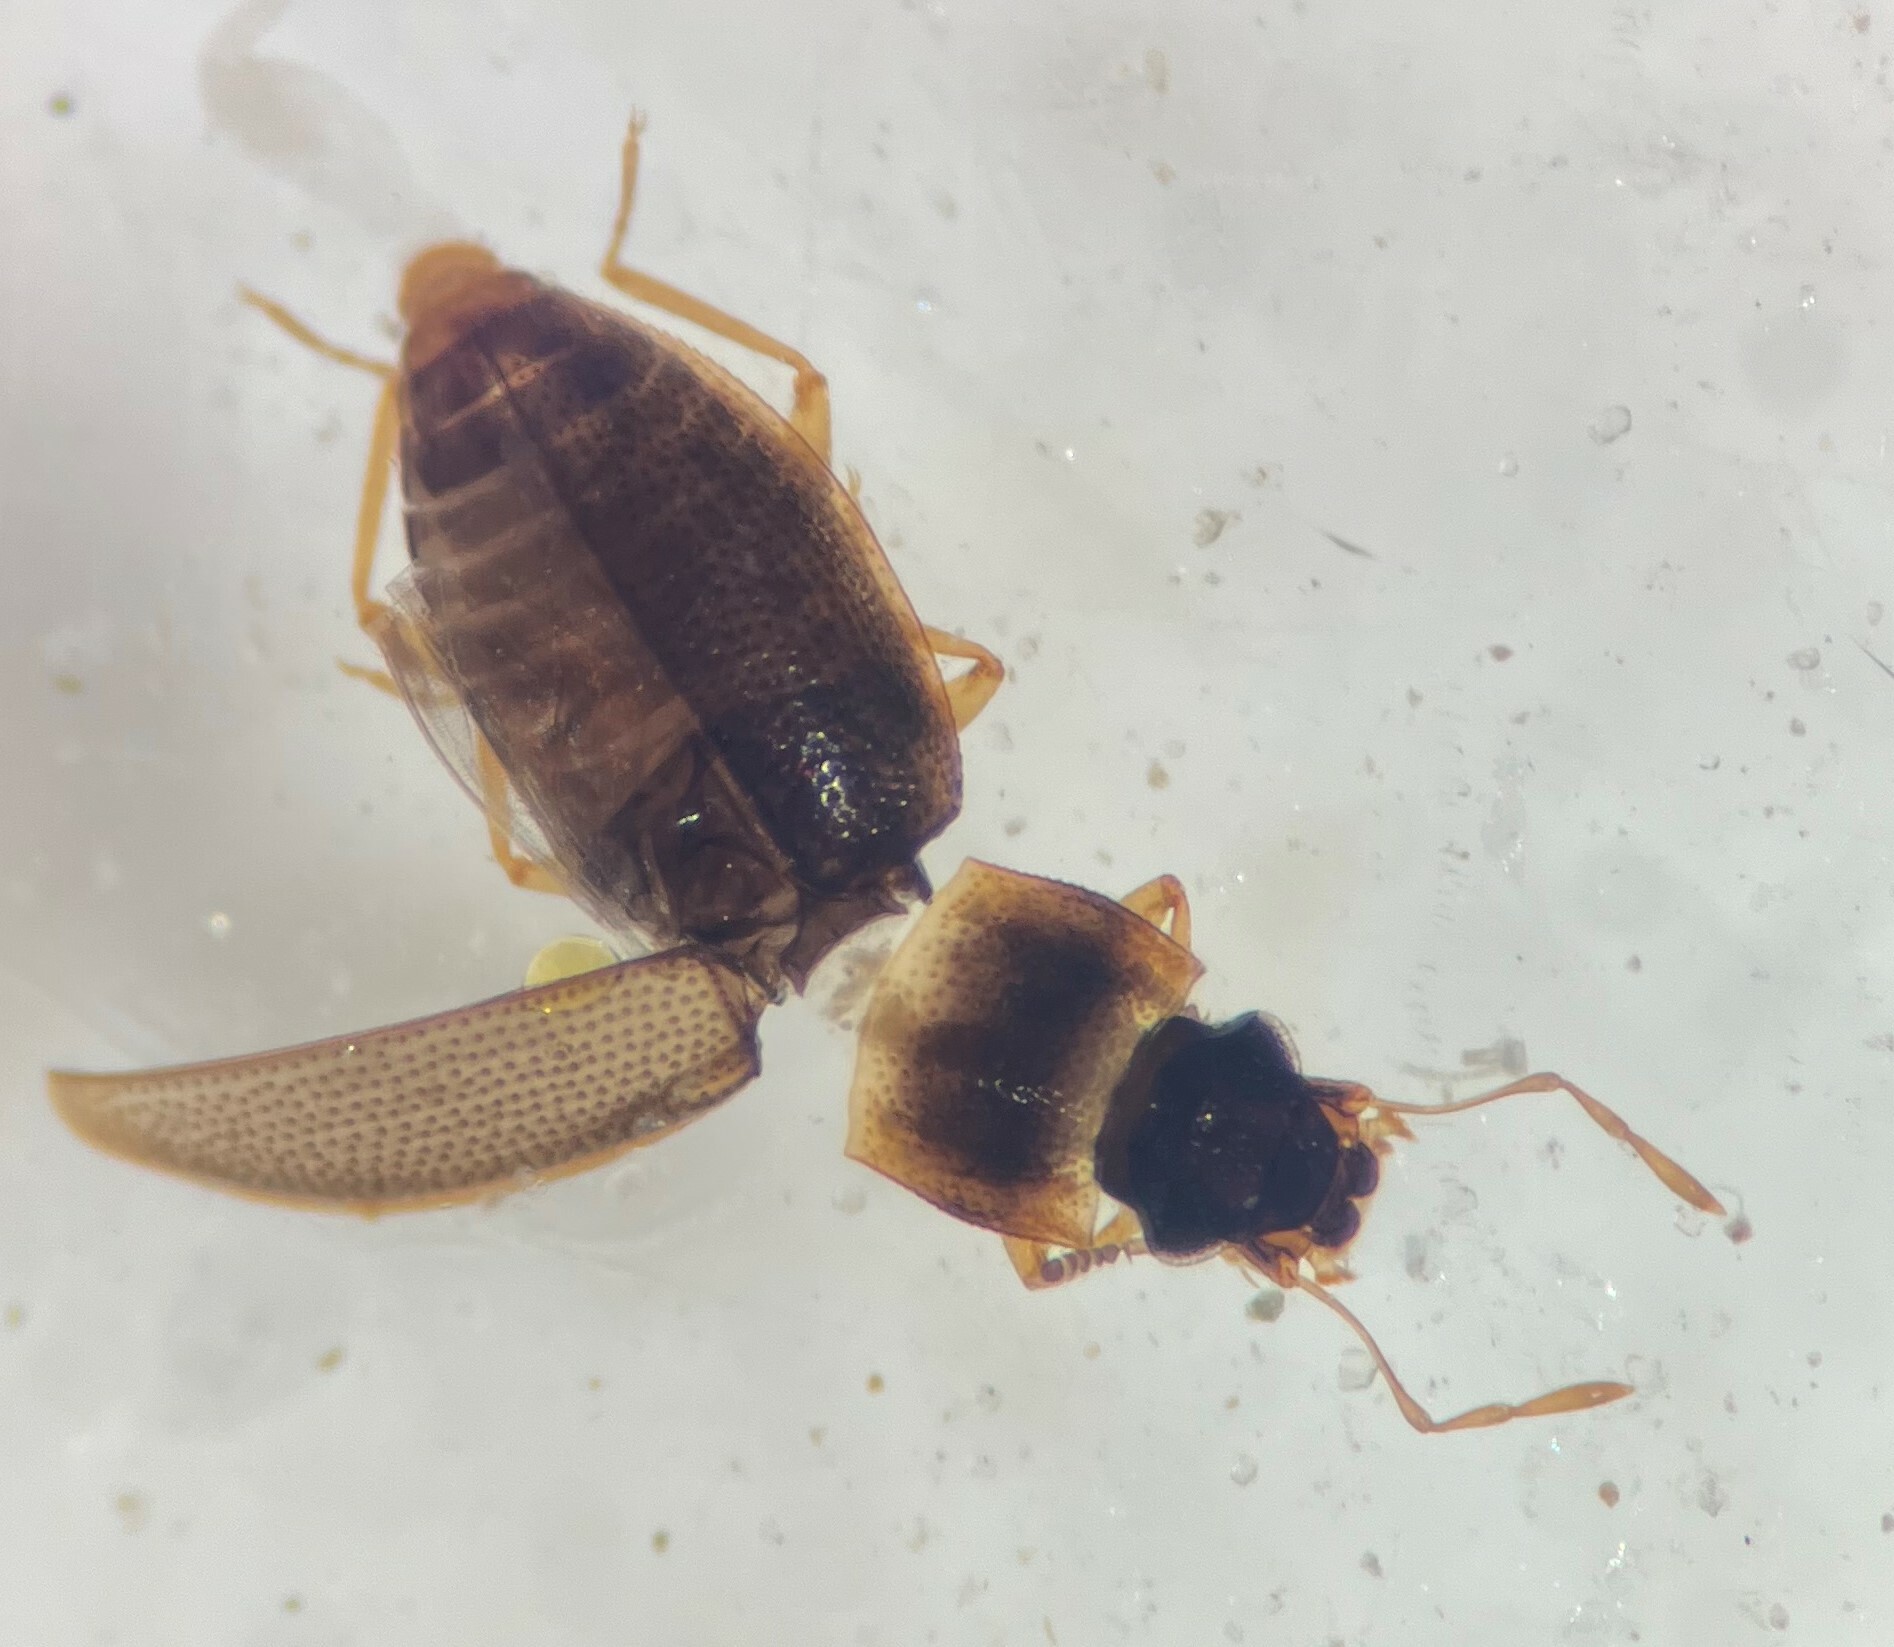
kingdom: Animalia
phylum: Arthropoda
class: Insecta
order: Coleoptera
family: Hydraenidae
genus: Hydraena
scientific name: Hydraena
